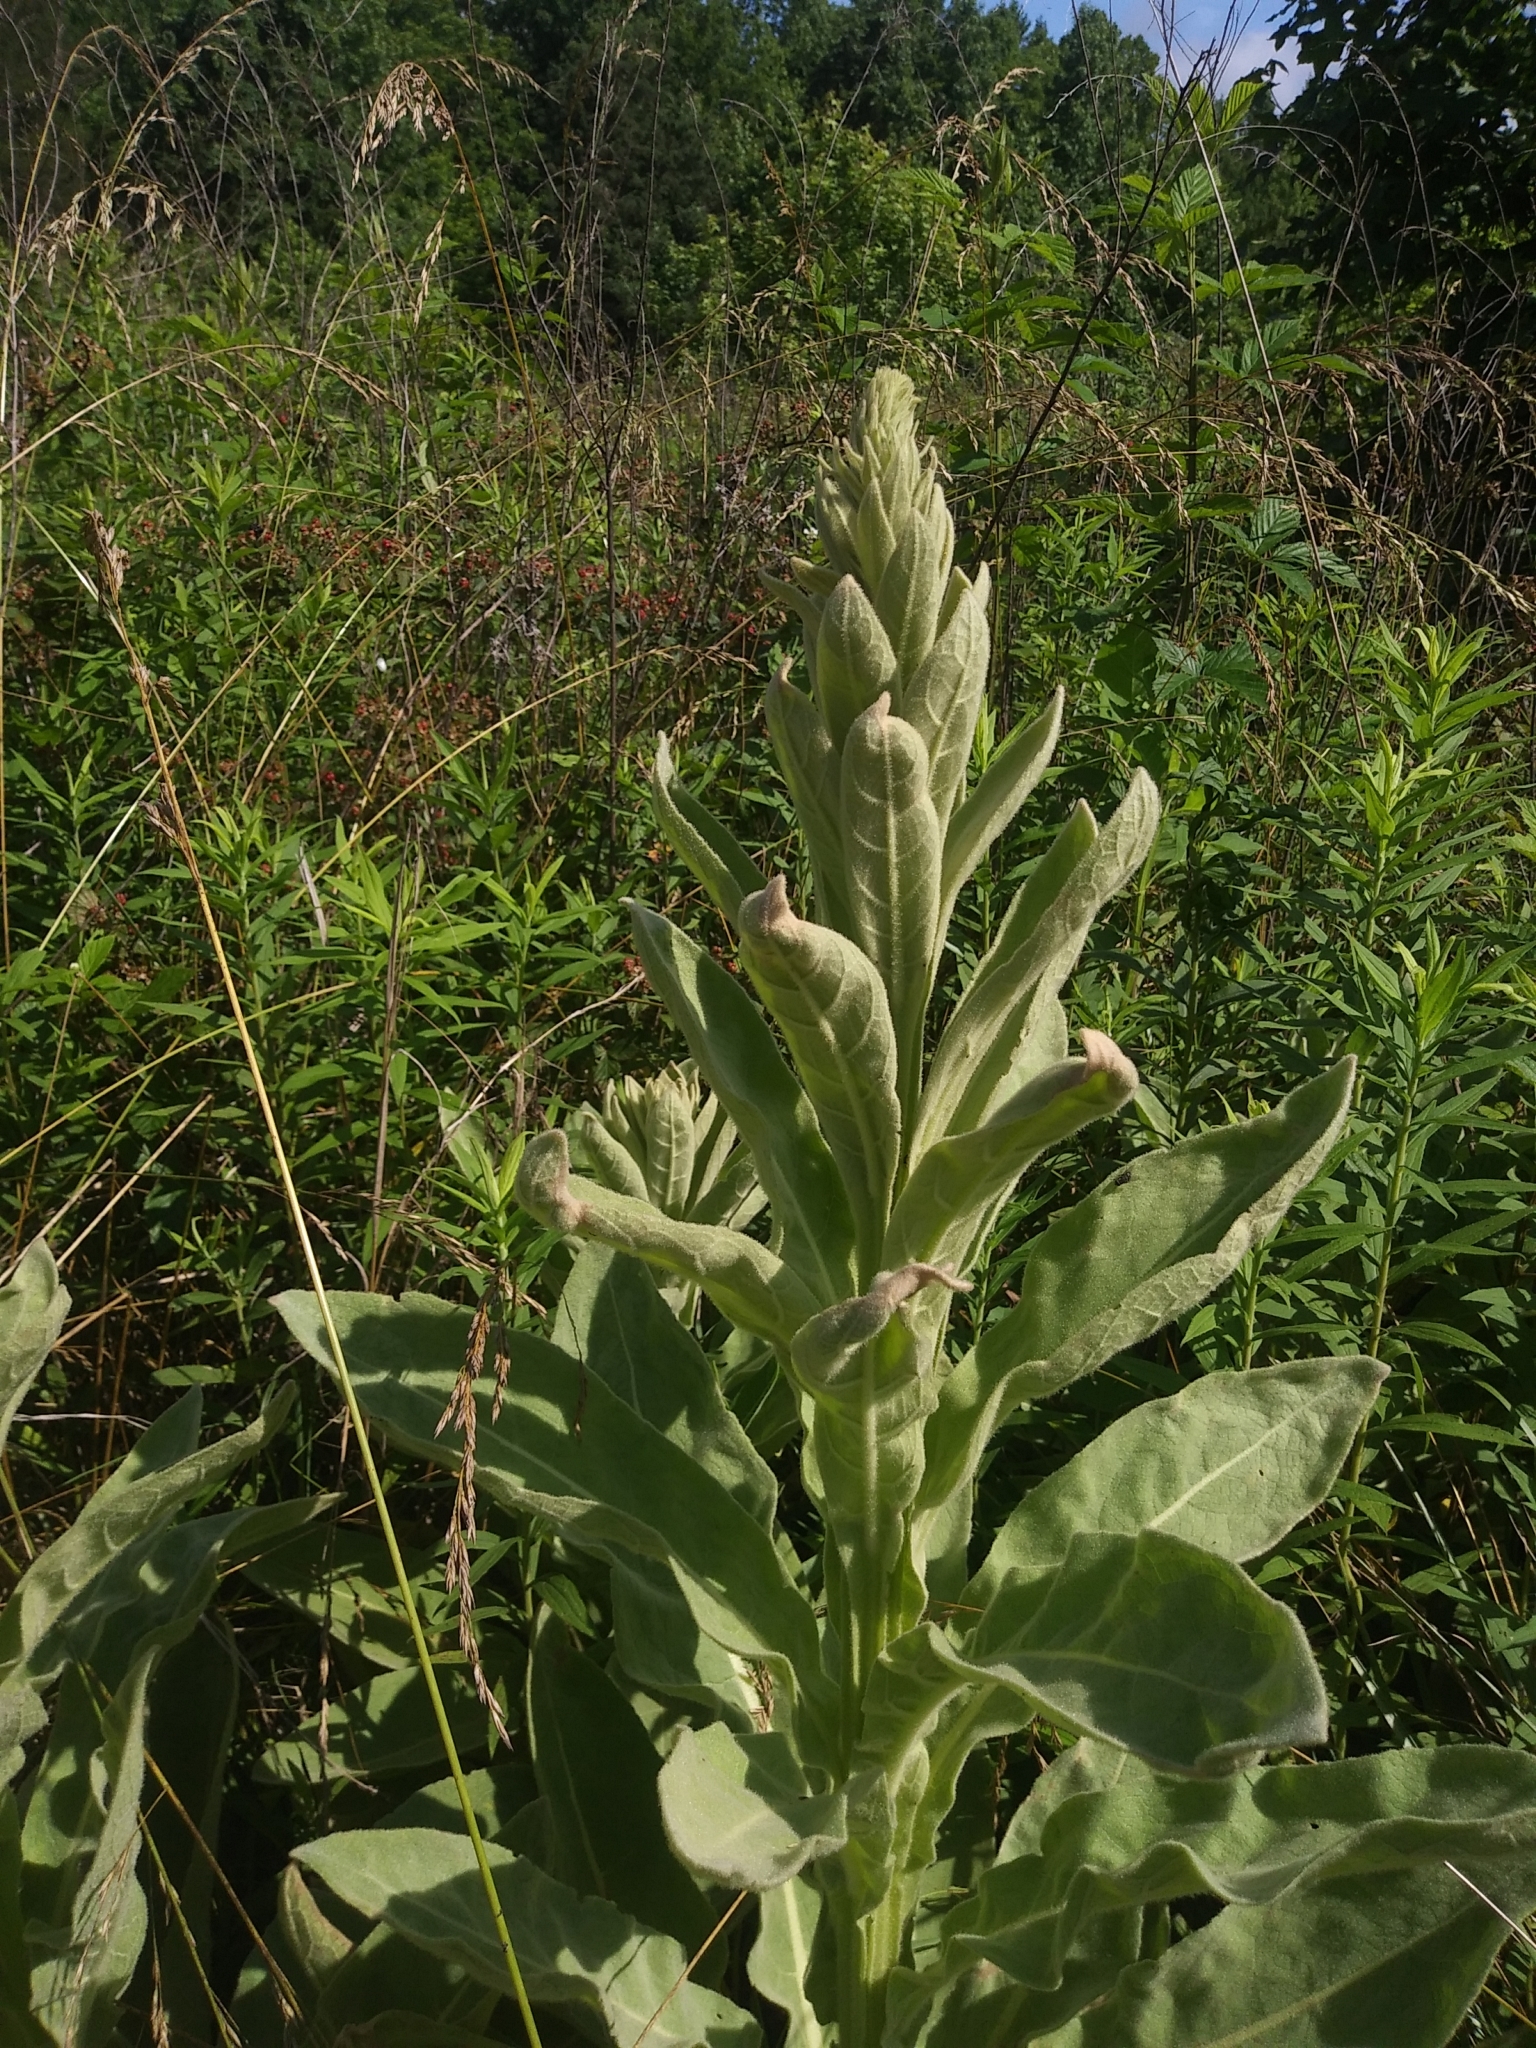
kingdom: Plantae
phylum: Tracheophyta
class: Magnoliopsida
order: Lamiales
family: Scrophulariaceae
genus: Verbascum
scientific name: Verbascum thapsus
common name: Common mullein
